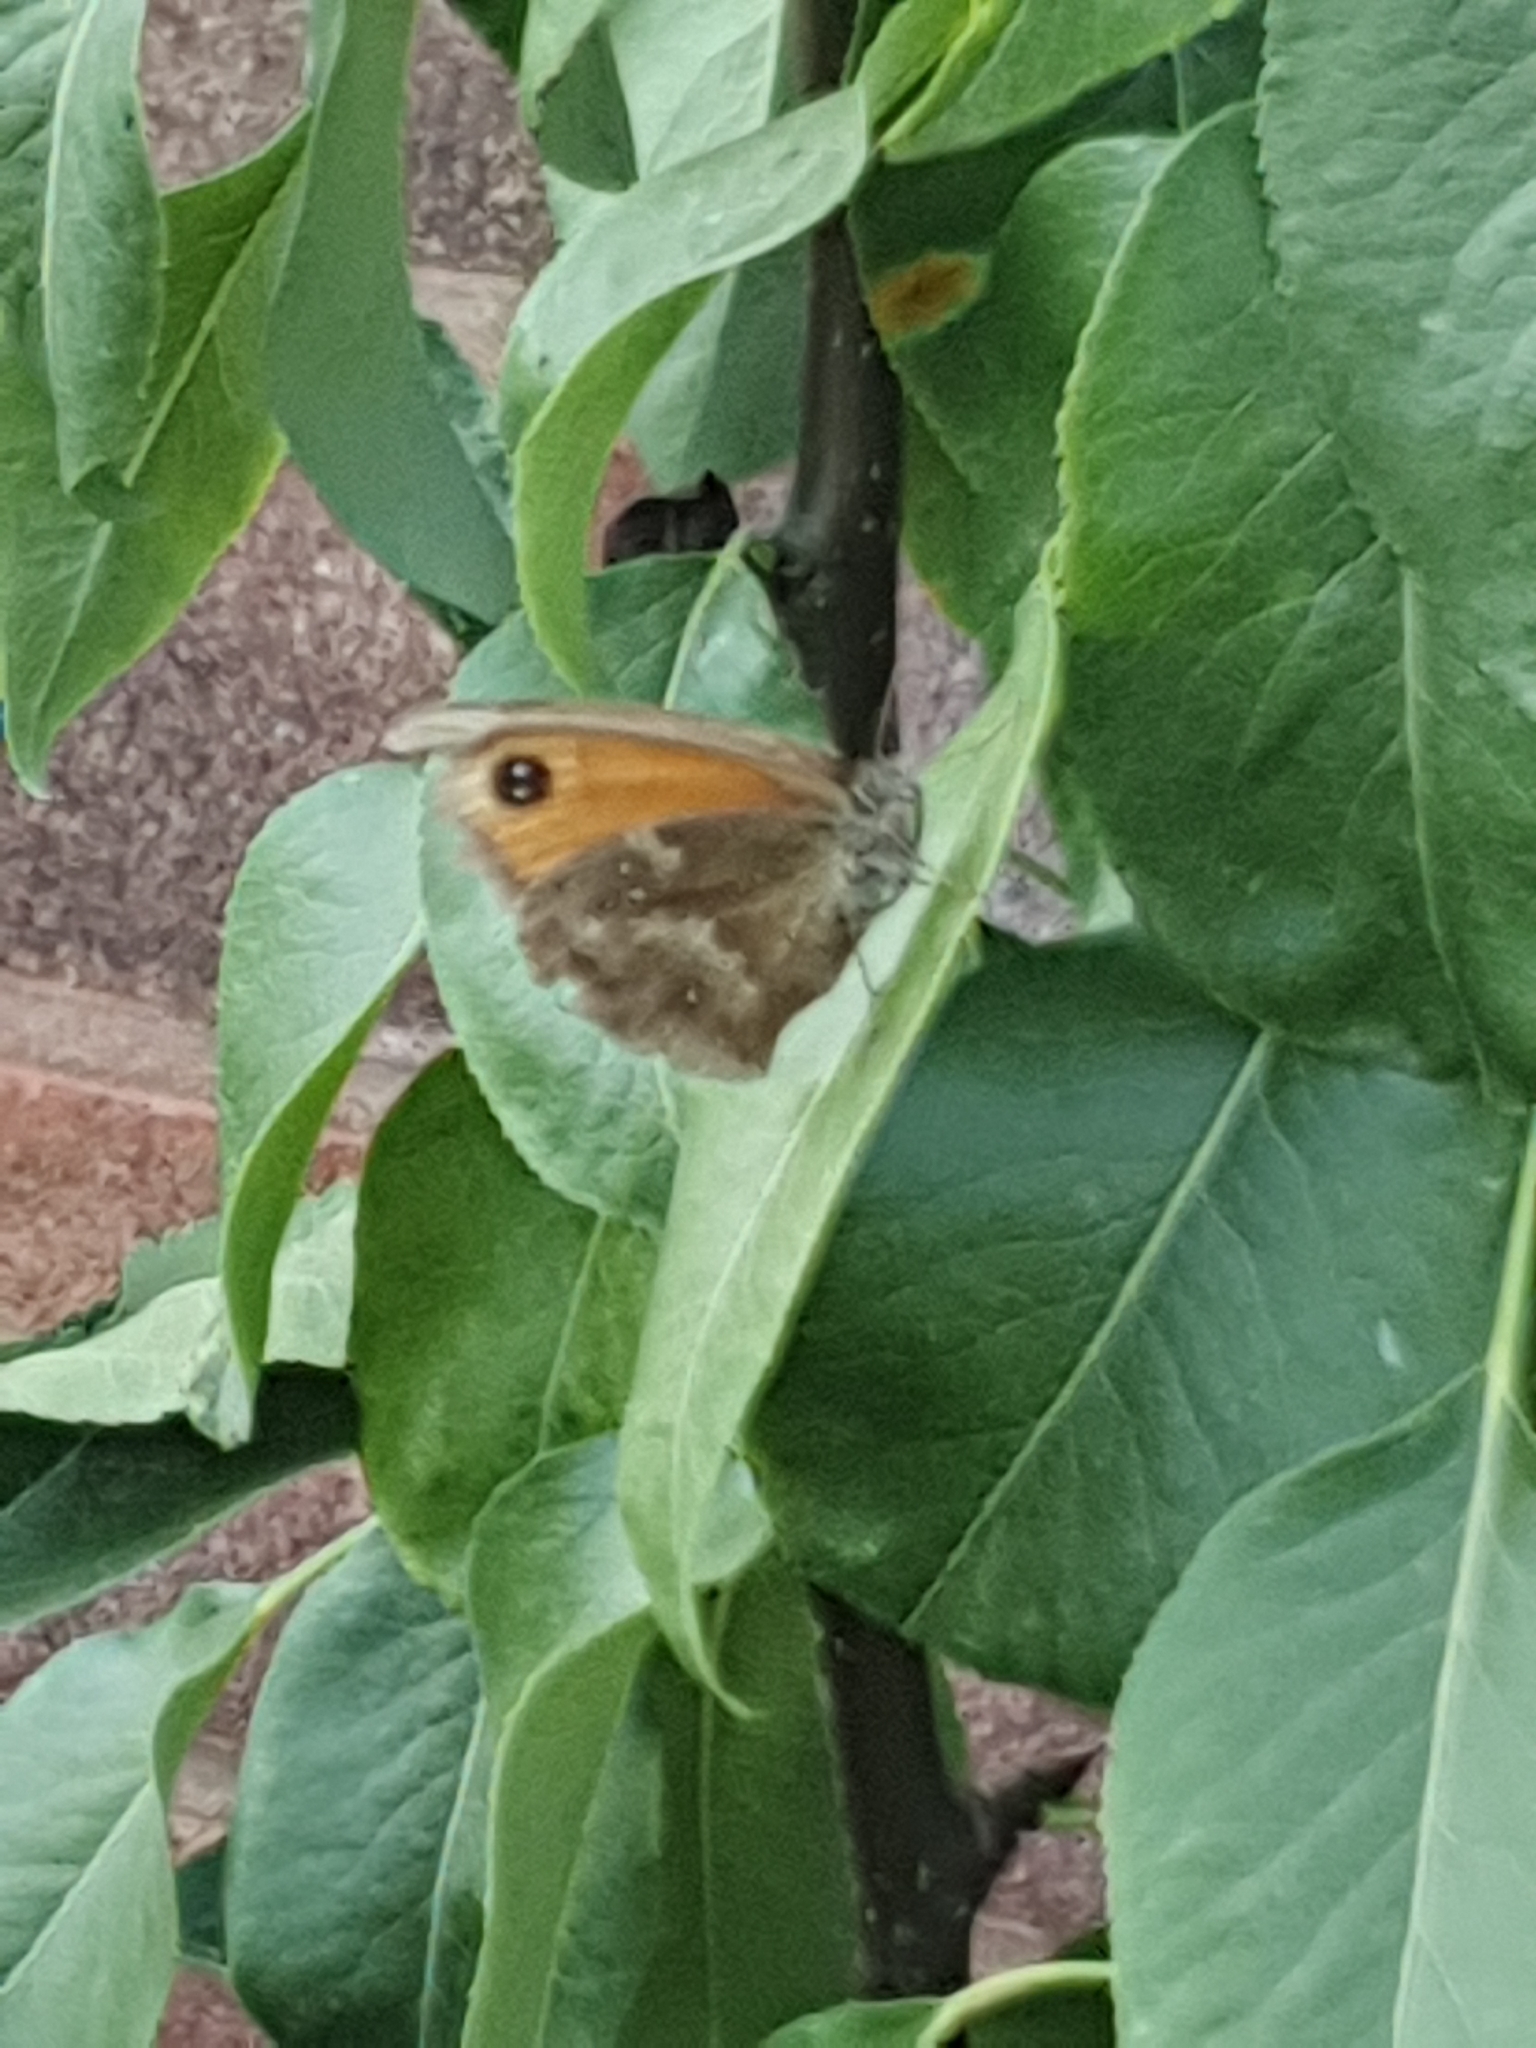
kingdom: Animalia
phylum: Arthropoda
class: Insecta
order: Lepidoptera
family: Nymphalidae
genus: Pyronia
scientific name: Pyronia tithonus
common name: Gatekeeper
